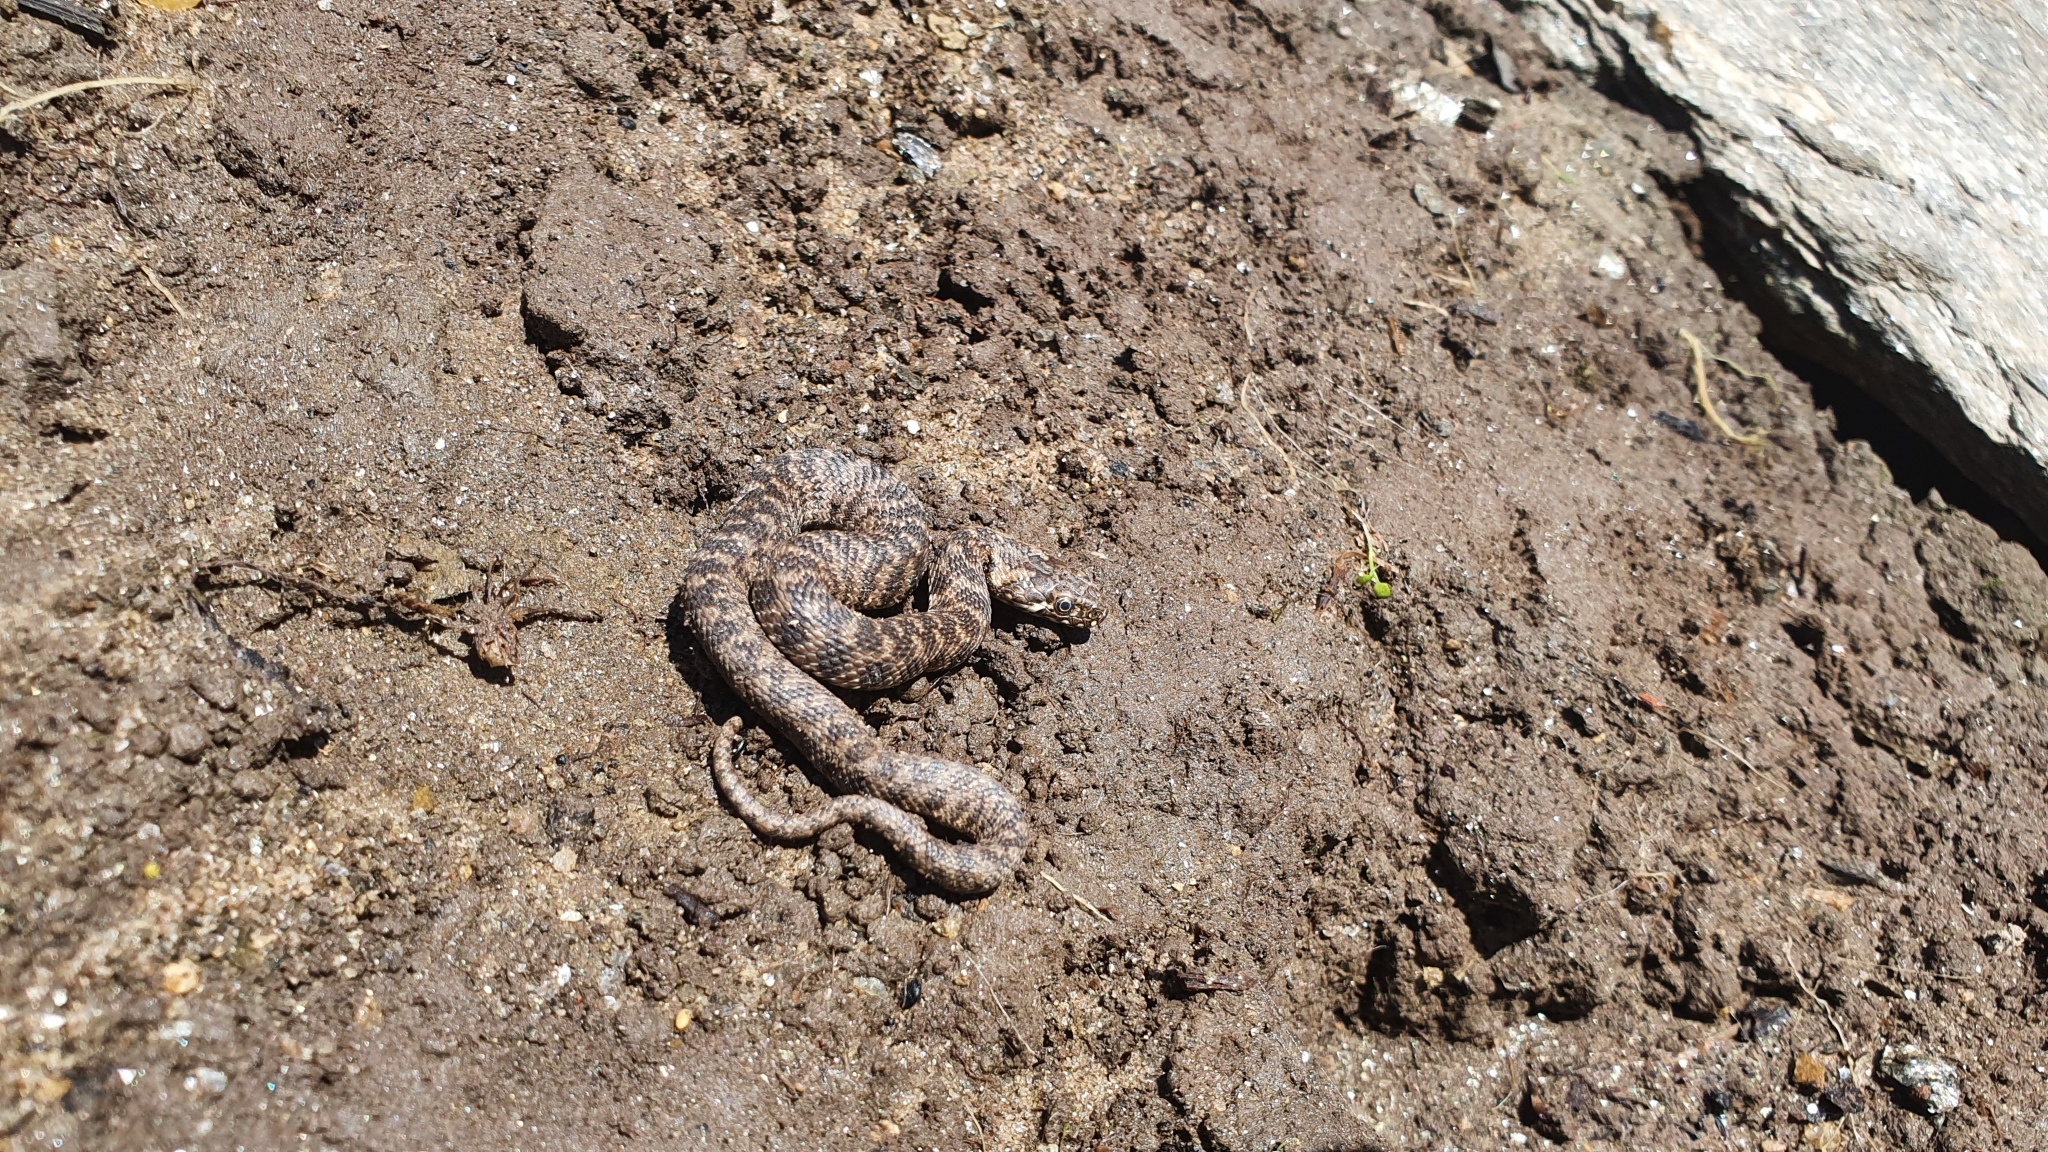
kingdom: Animalia
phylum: Chordata
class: Squamata
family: Colubridae
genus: Natrix
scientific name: Natrix maura
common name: Viperine water snake
